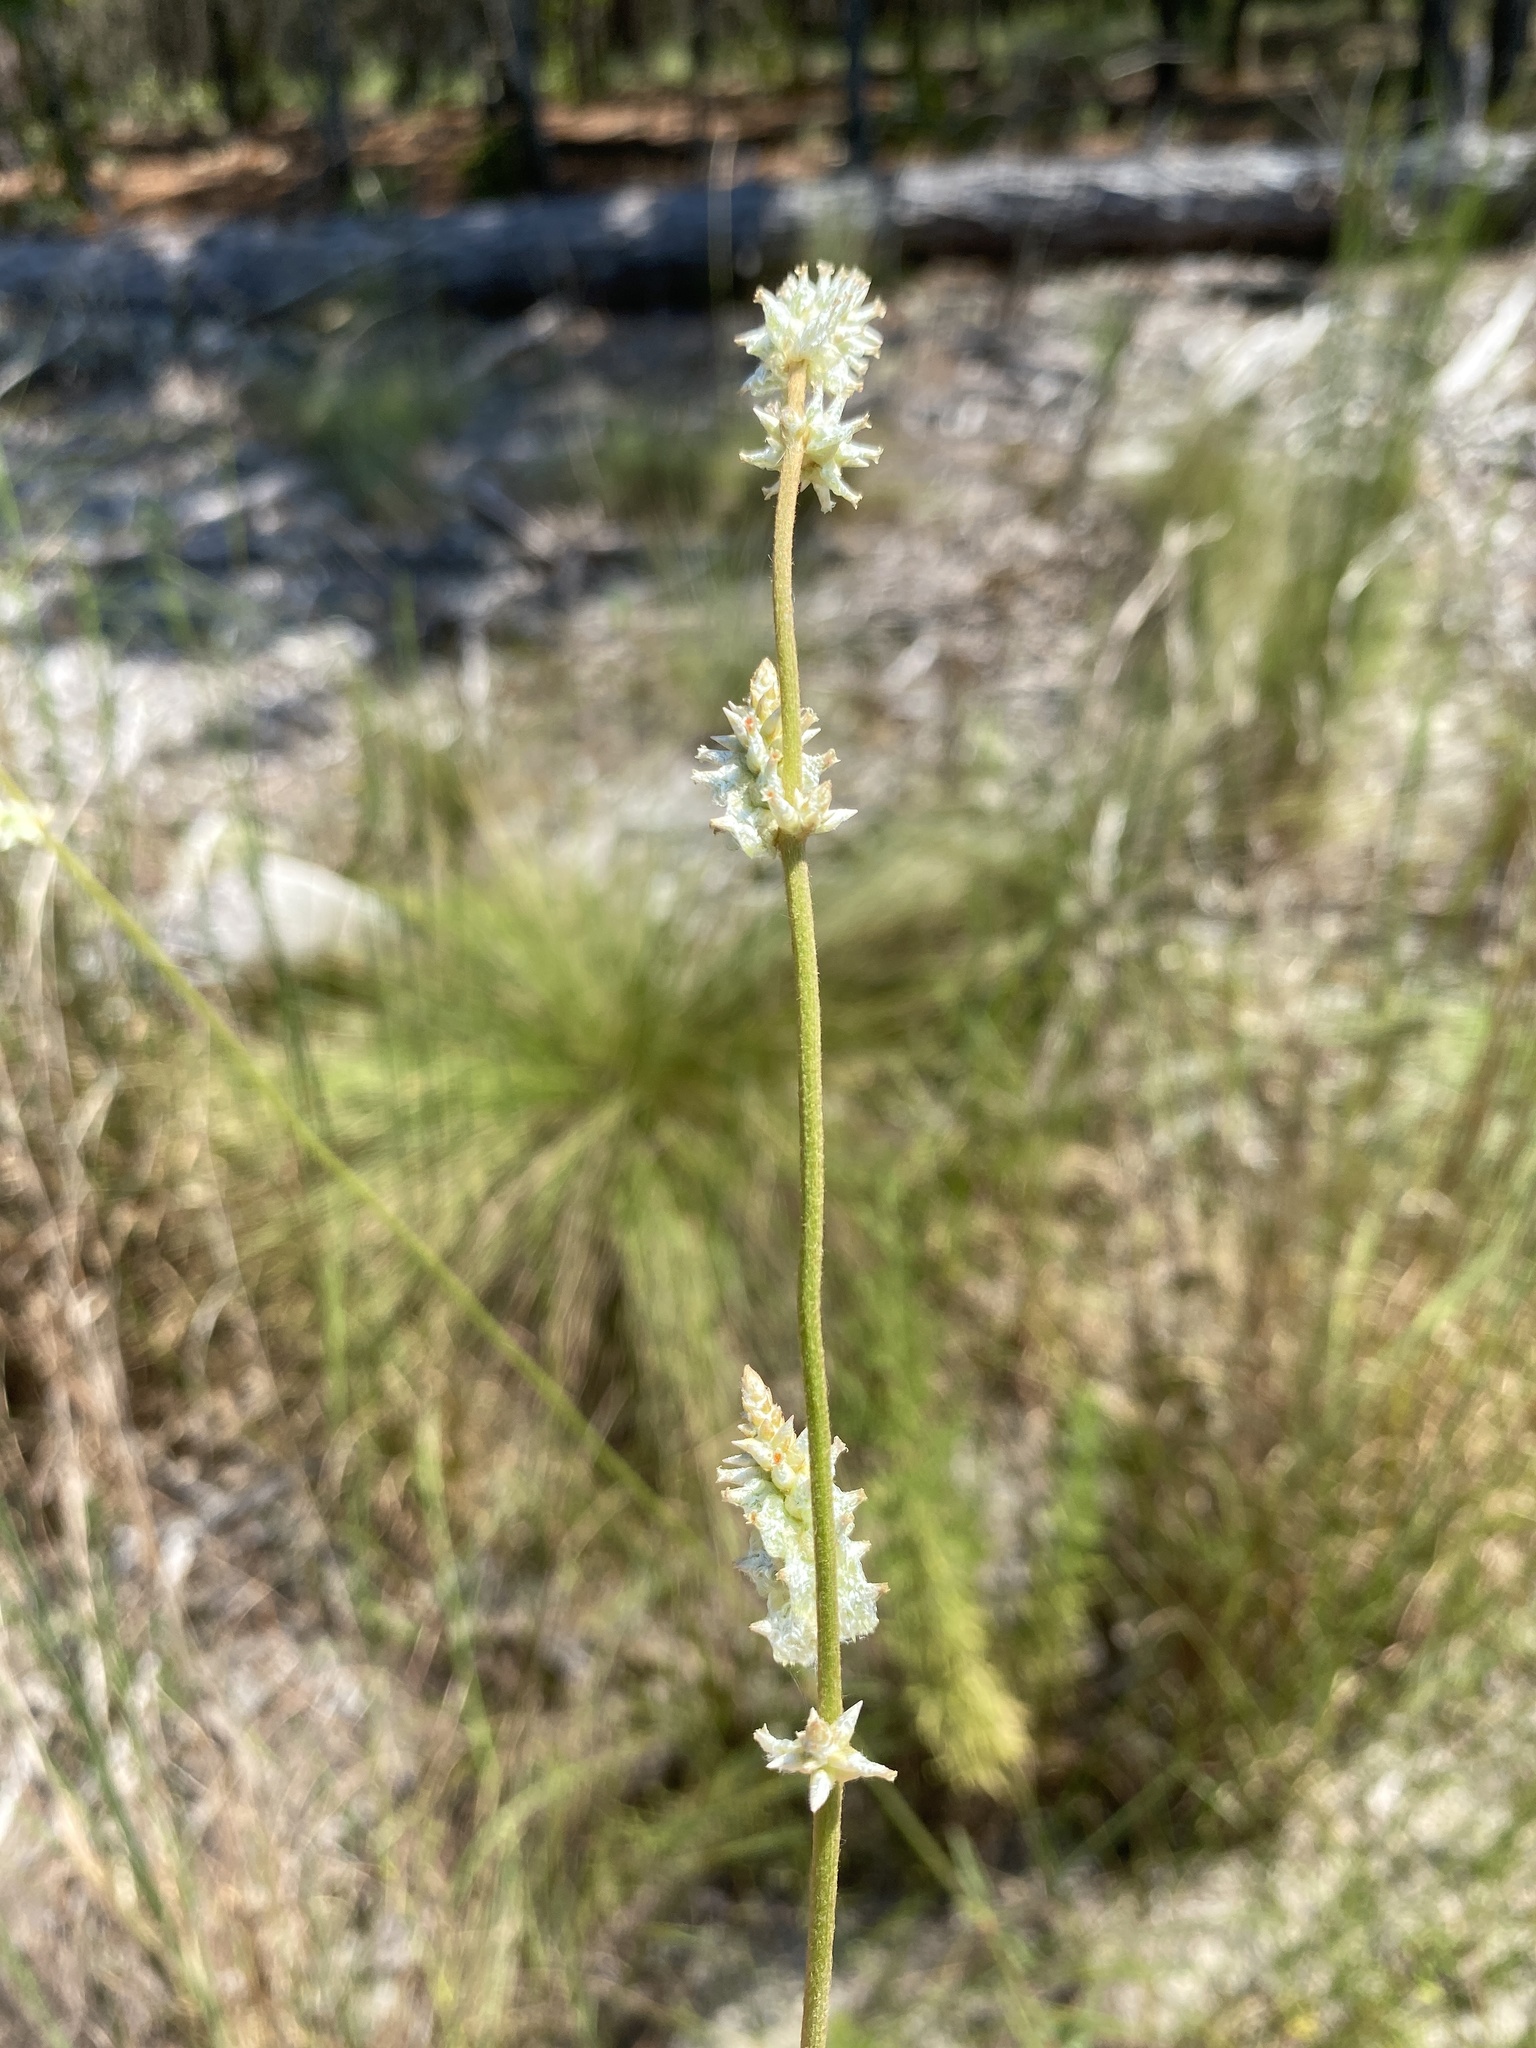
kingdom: Plantae
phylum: Tracheophyta
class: Magnoliopsida
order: Caryophyllales
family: Amaranthaceae
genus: Froelichia
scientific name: Froelichia floridana
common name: Florida snake-cotton
